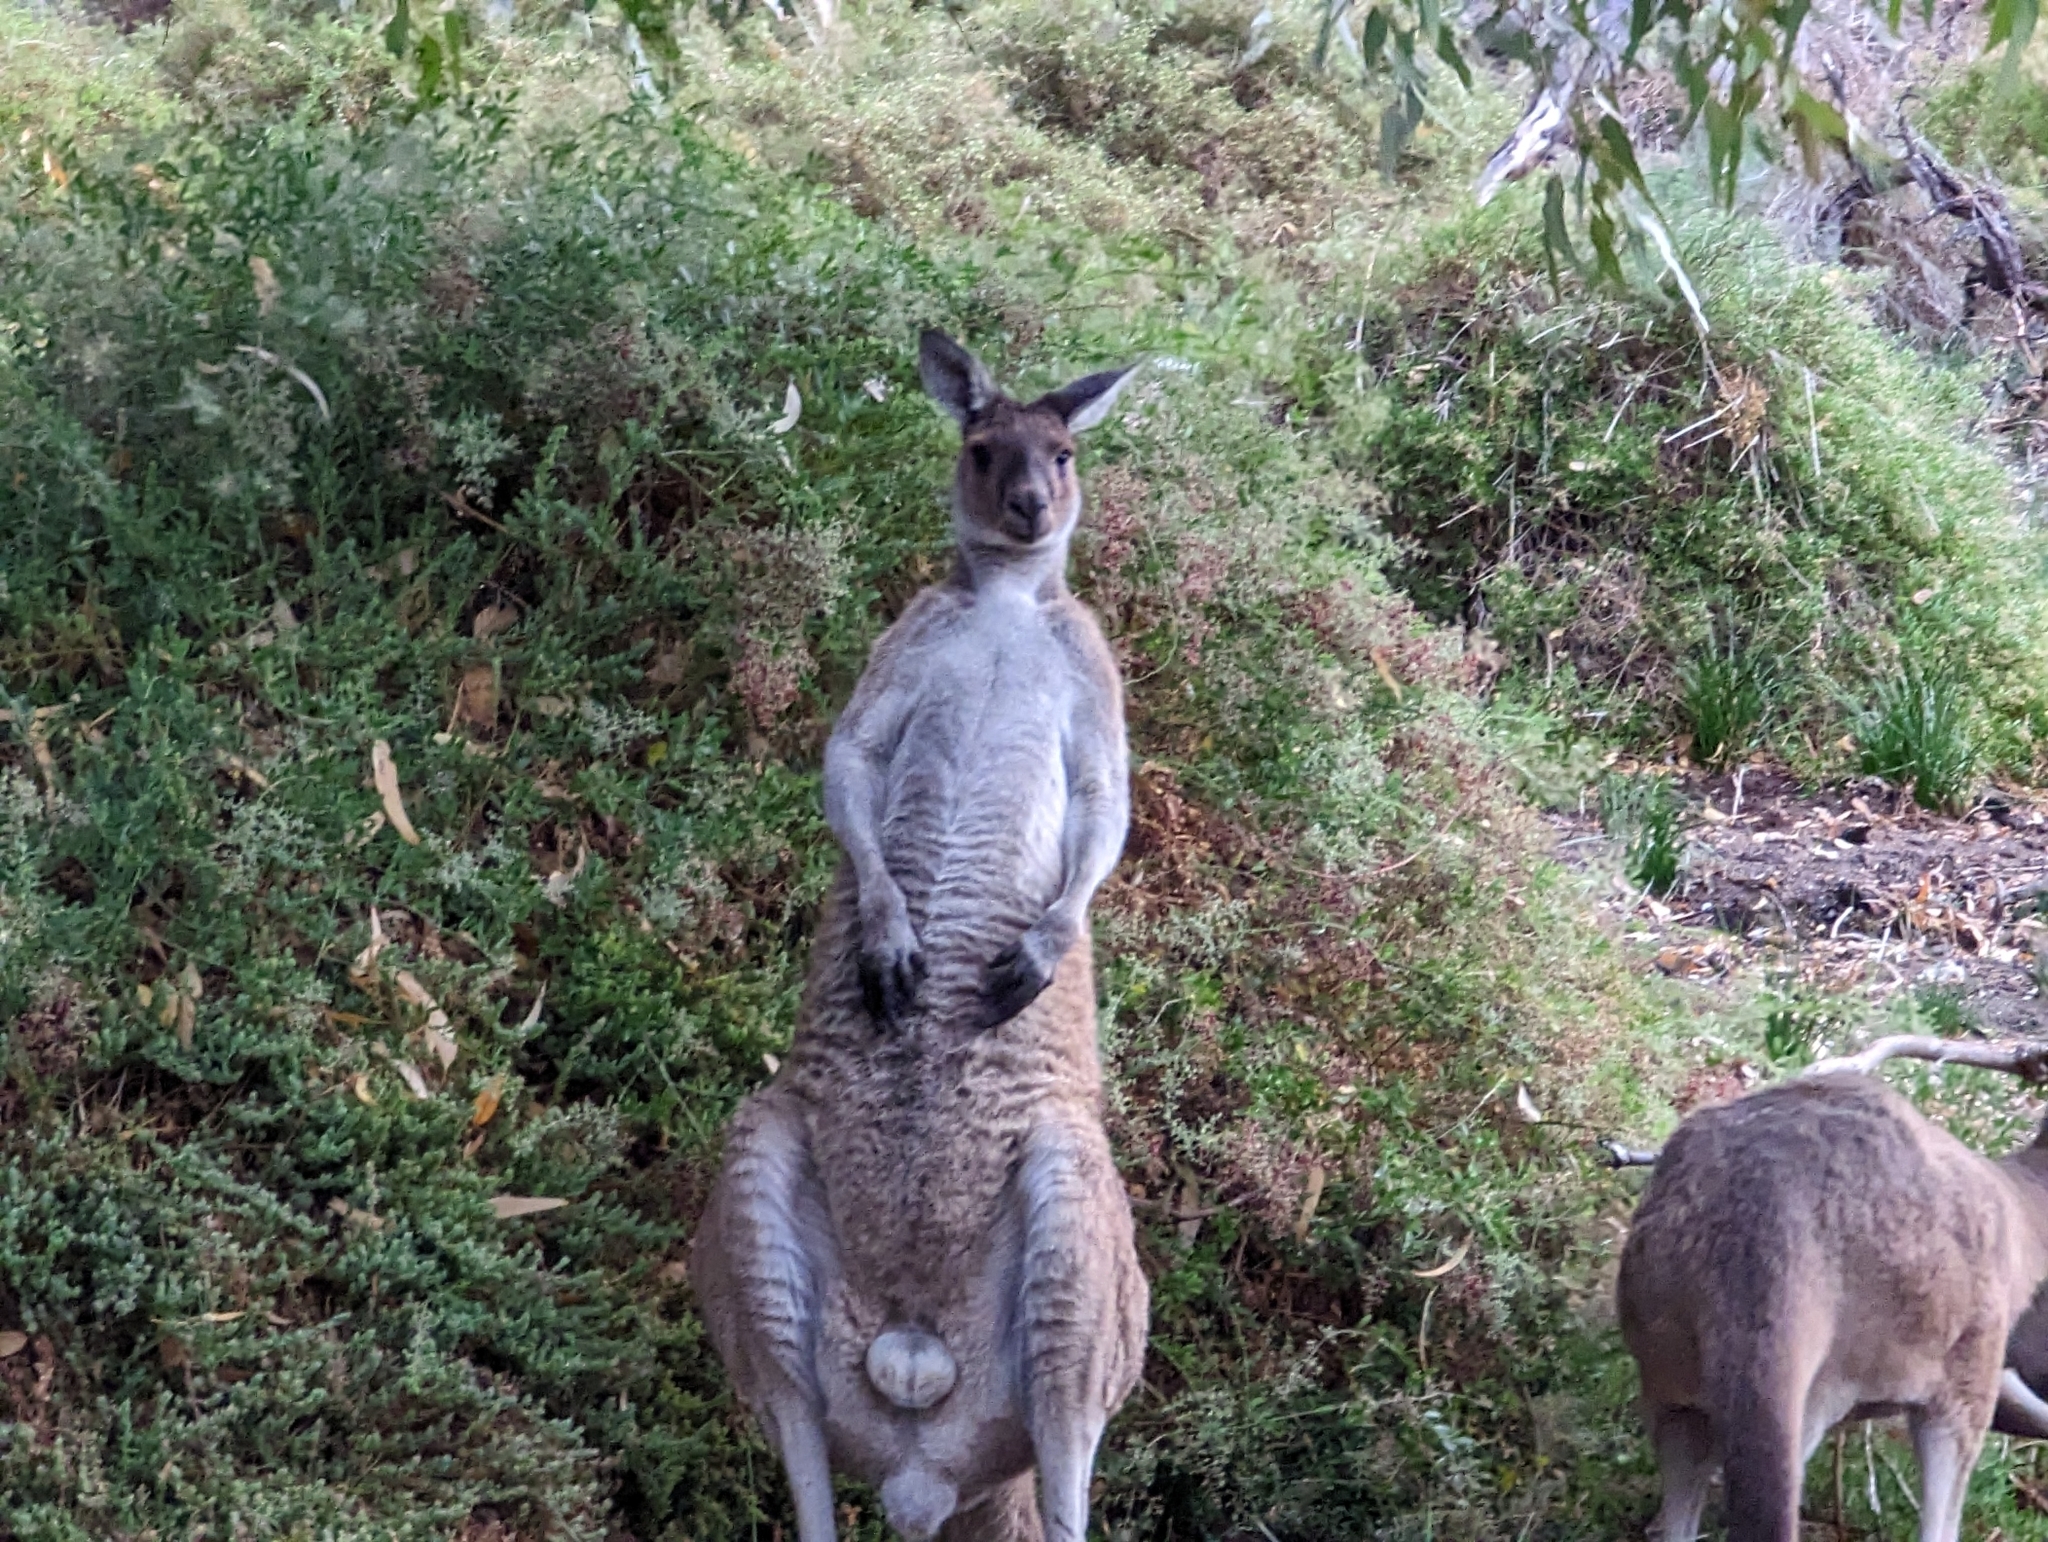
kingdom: Animalia
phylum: Chordata
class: Mammalia
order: Diprotodontia
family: Macropodidae
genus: Macropus
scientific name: Macropus fuliginosus
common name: Western grey kangaroo
